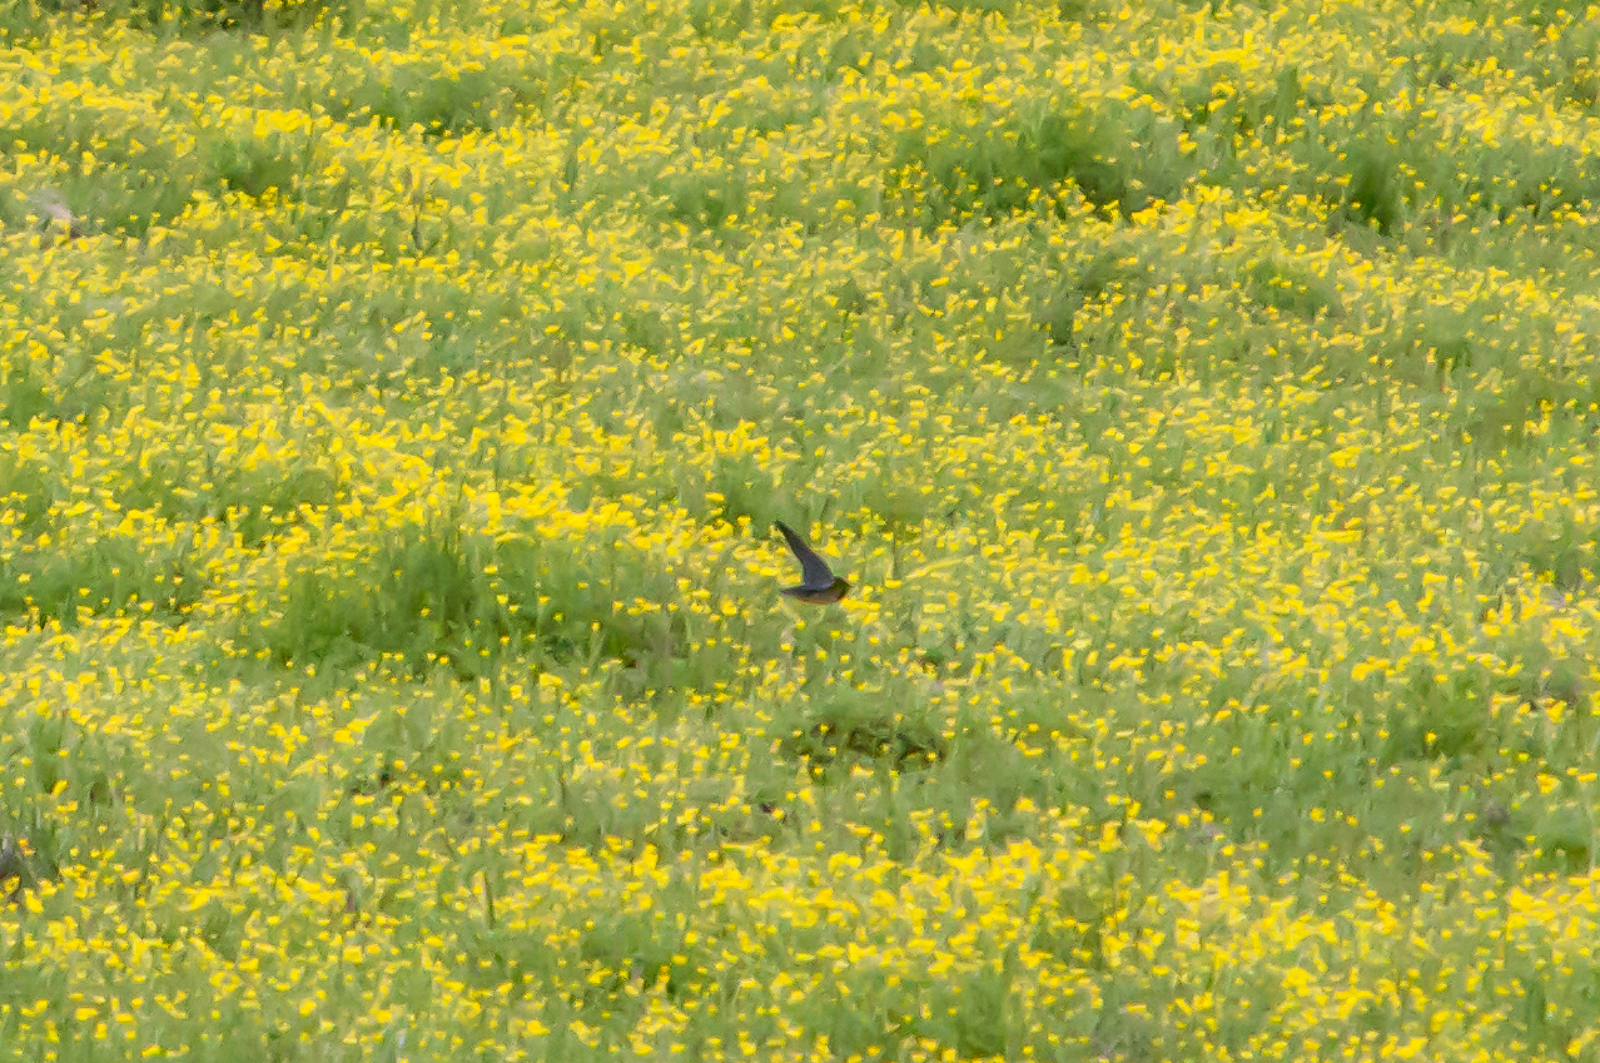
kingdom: Animalia
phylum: Chordata
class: Aves
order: Passeriformes
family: Hirundinidae
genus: Hirundo
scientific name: Hirundo rustica
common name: Barn swallow
